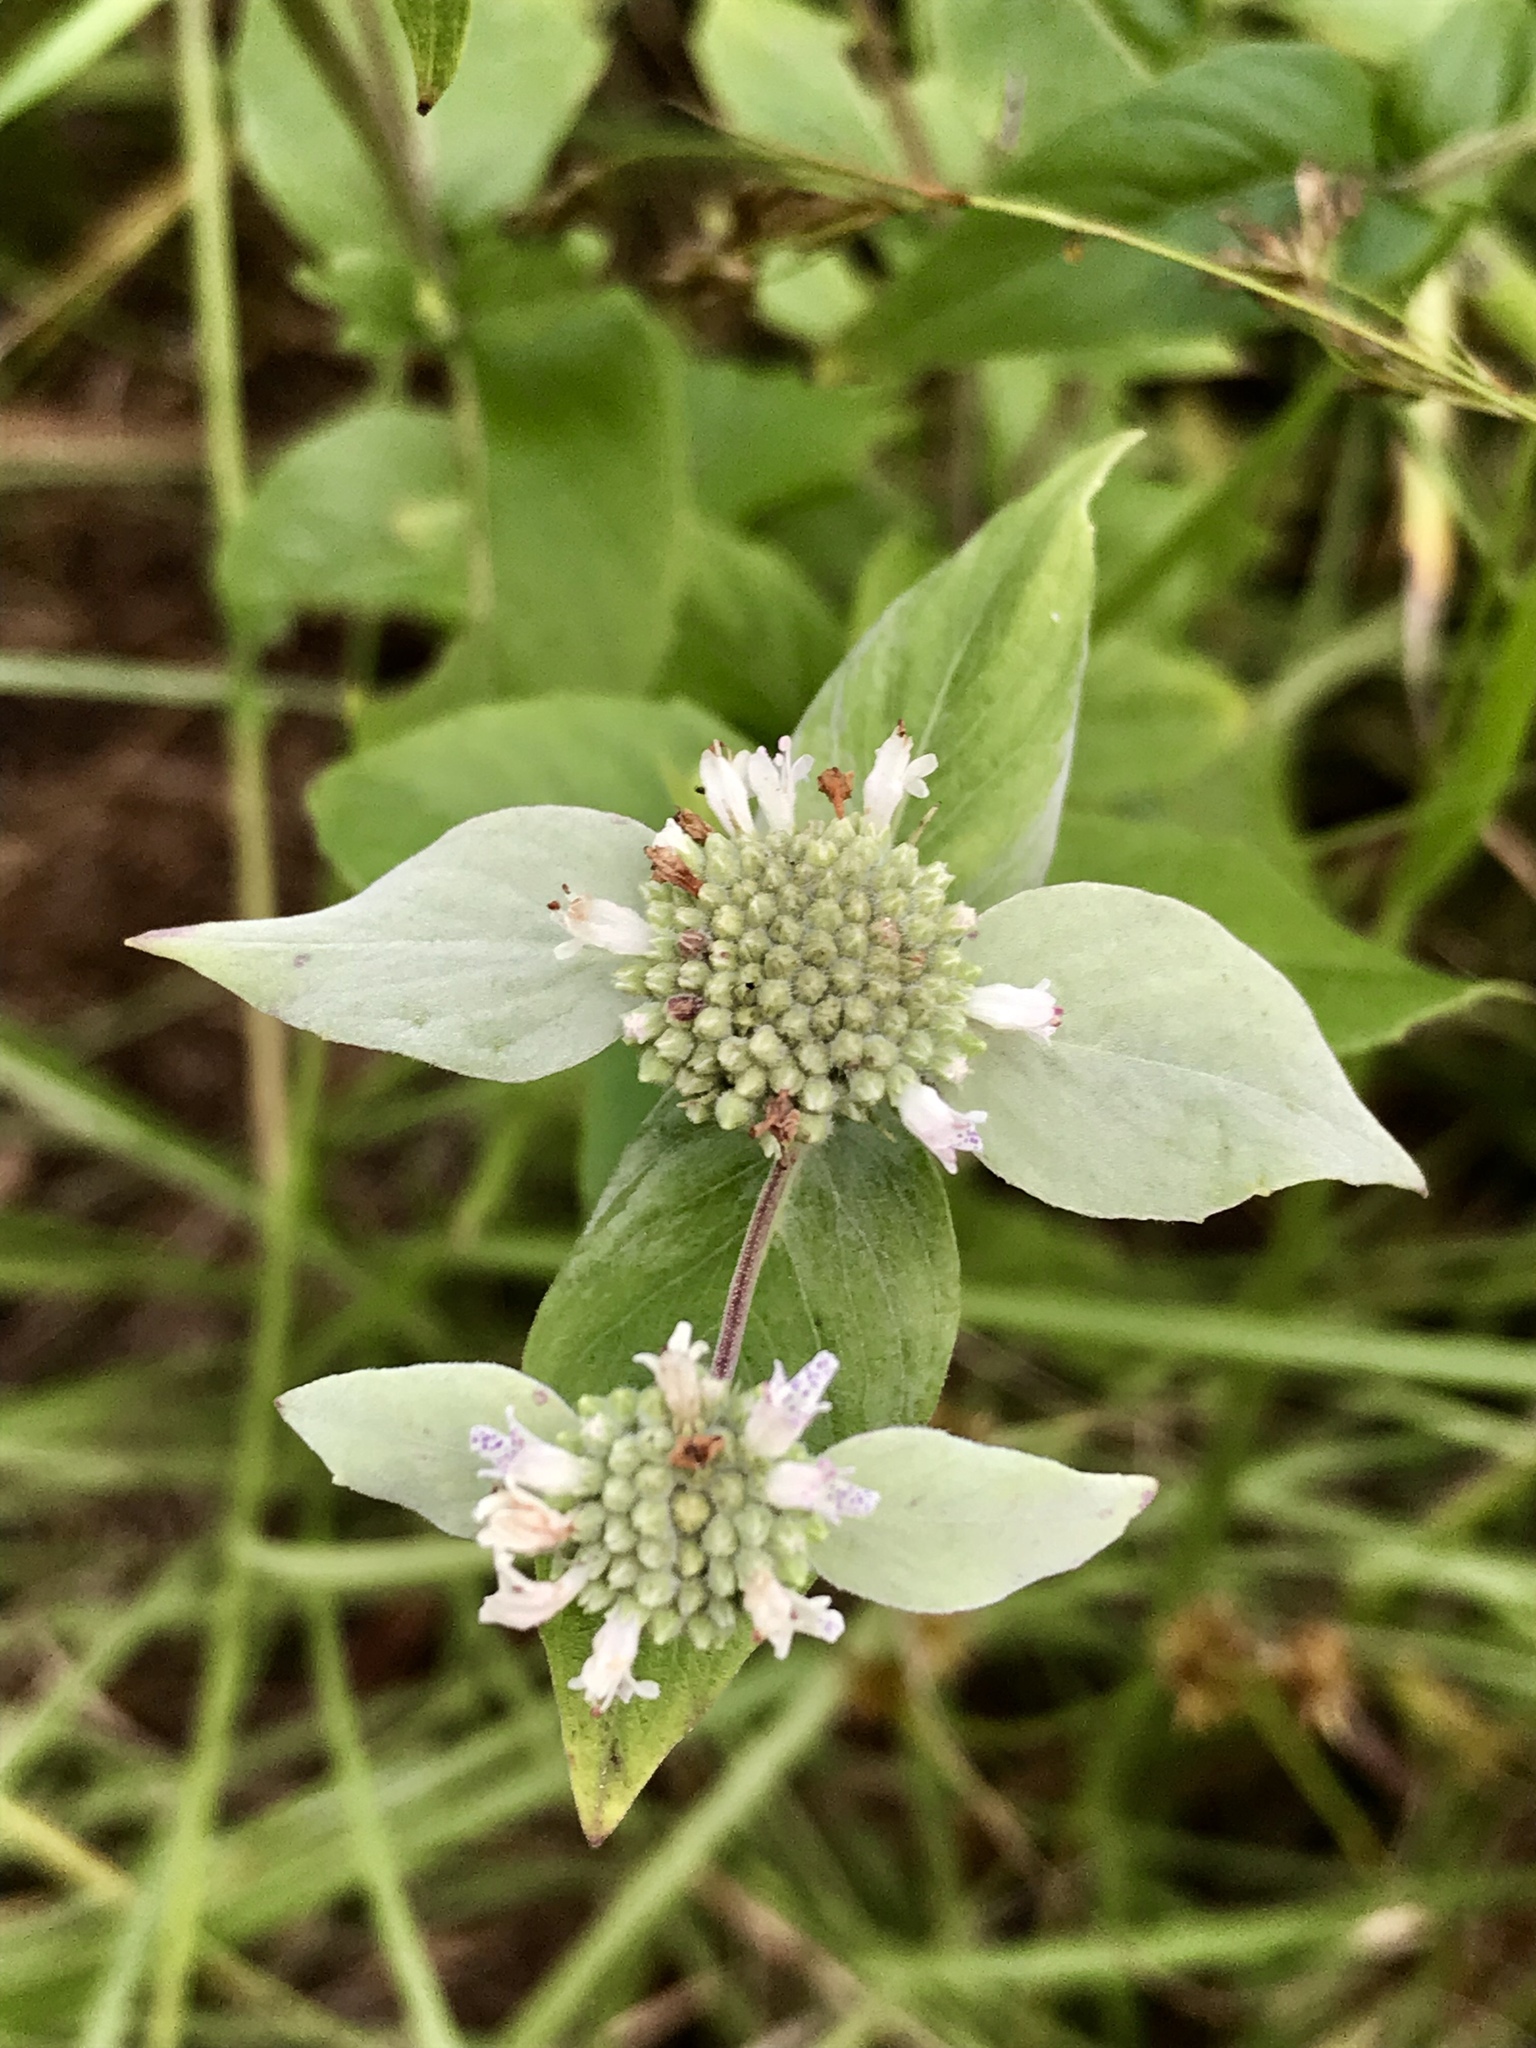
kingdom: Plantae
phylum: Tracheophyta
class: Magnoliopsida
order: Lamiales
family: Lamiaceae
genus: Pycnanthemum
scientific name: Pycnanthemum muticum
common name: Blunt mountain-mint
